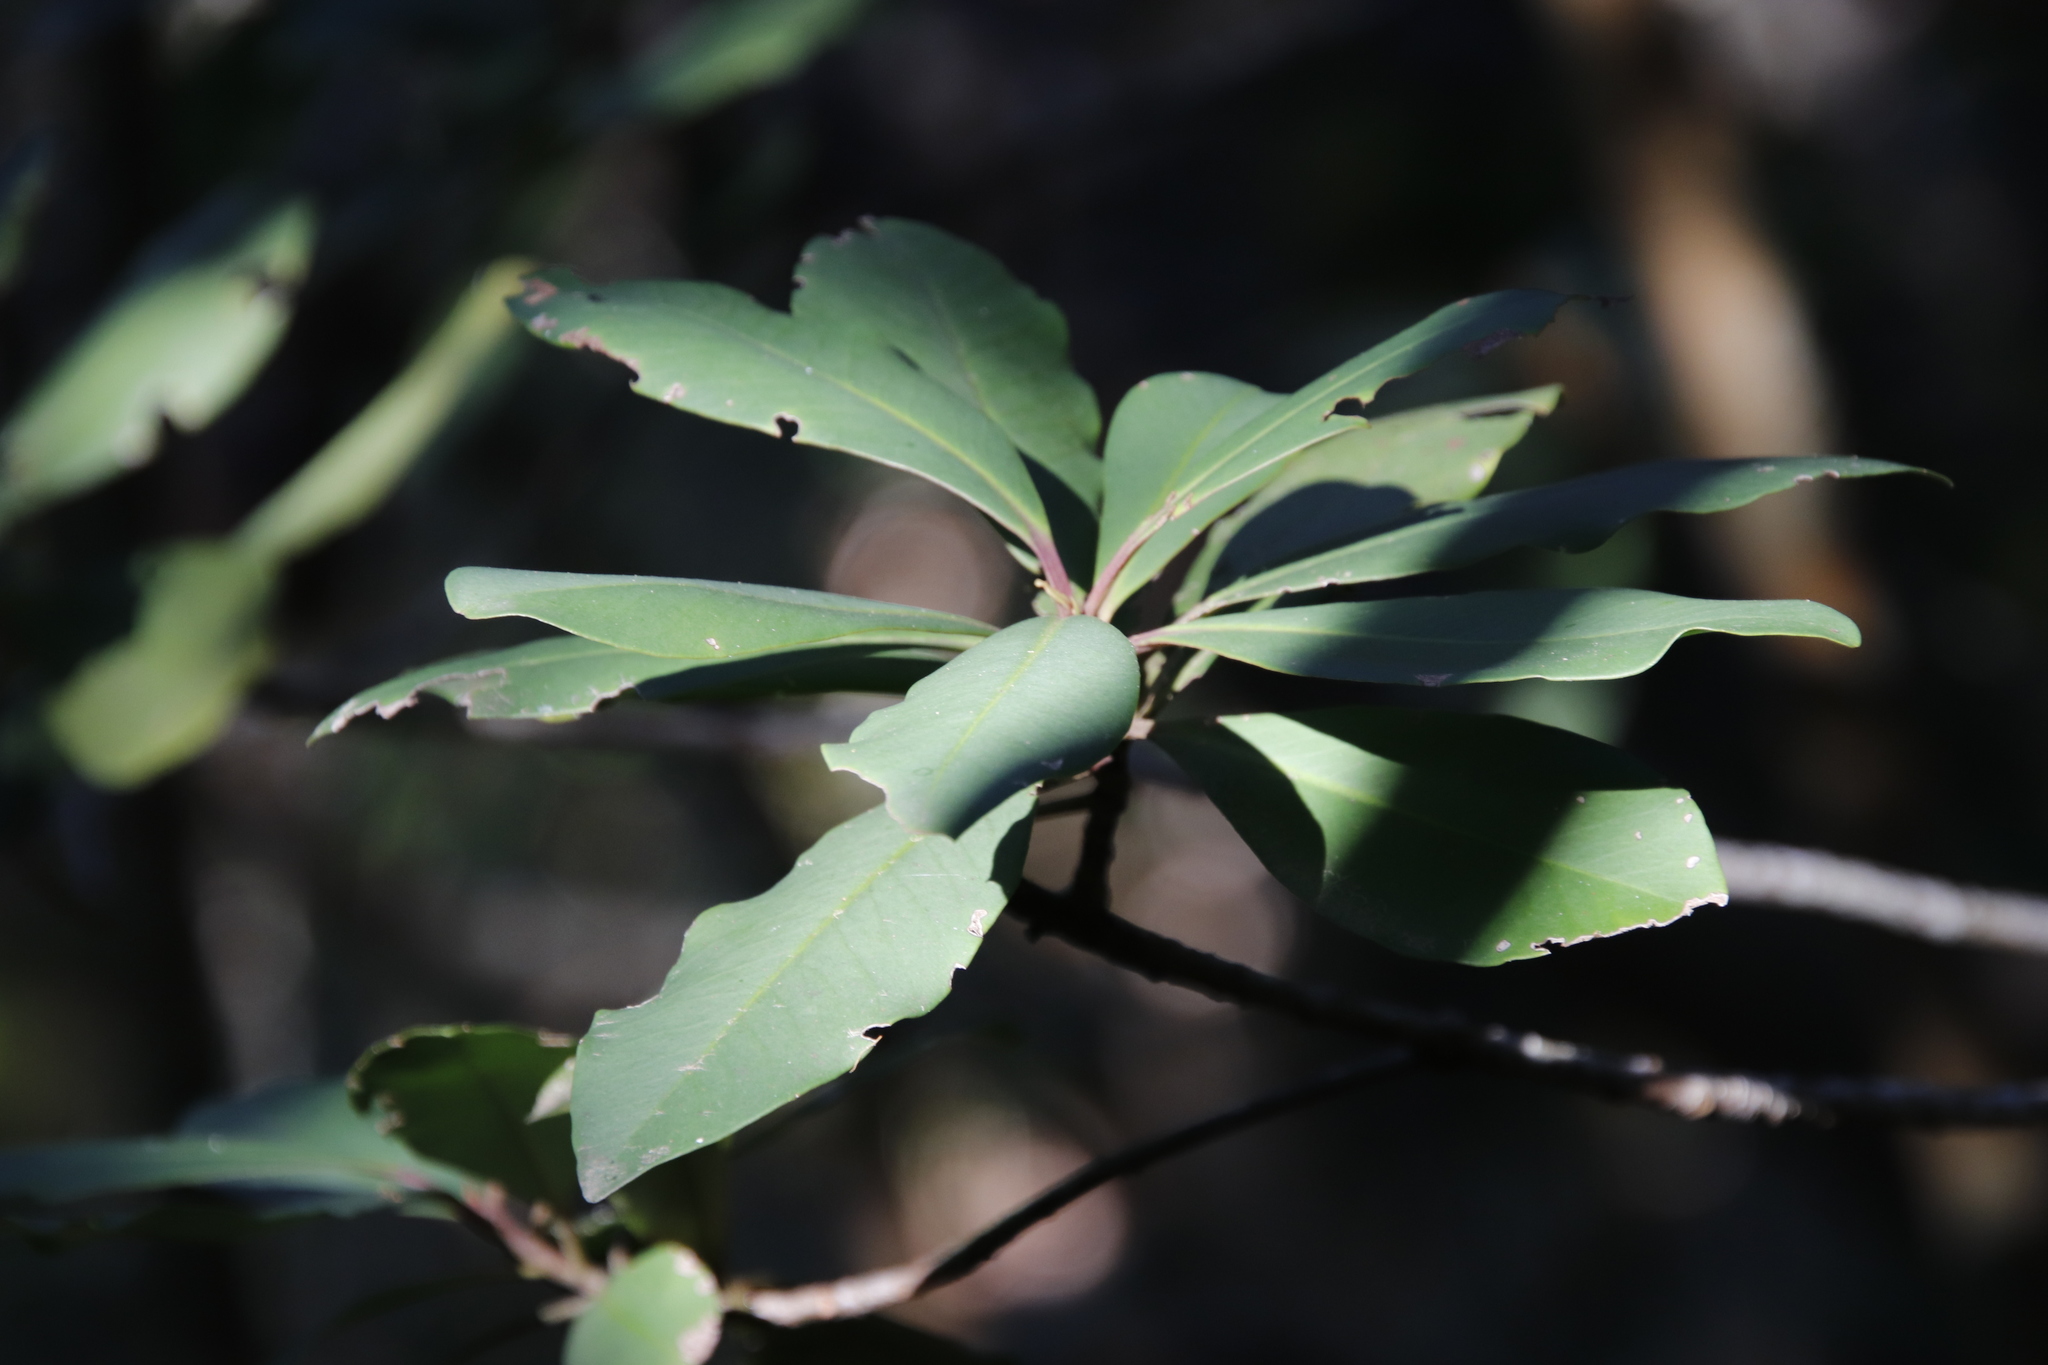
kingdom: Plantae
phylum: Tracheophyta
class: Magnoliopsida
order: Ericales
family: Primulaceae
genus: Myrsine
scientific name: Myrsine melanophloeos
